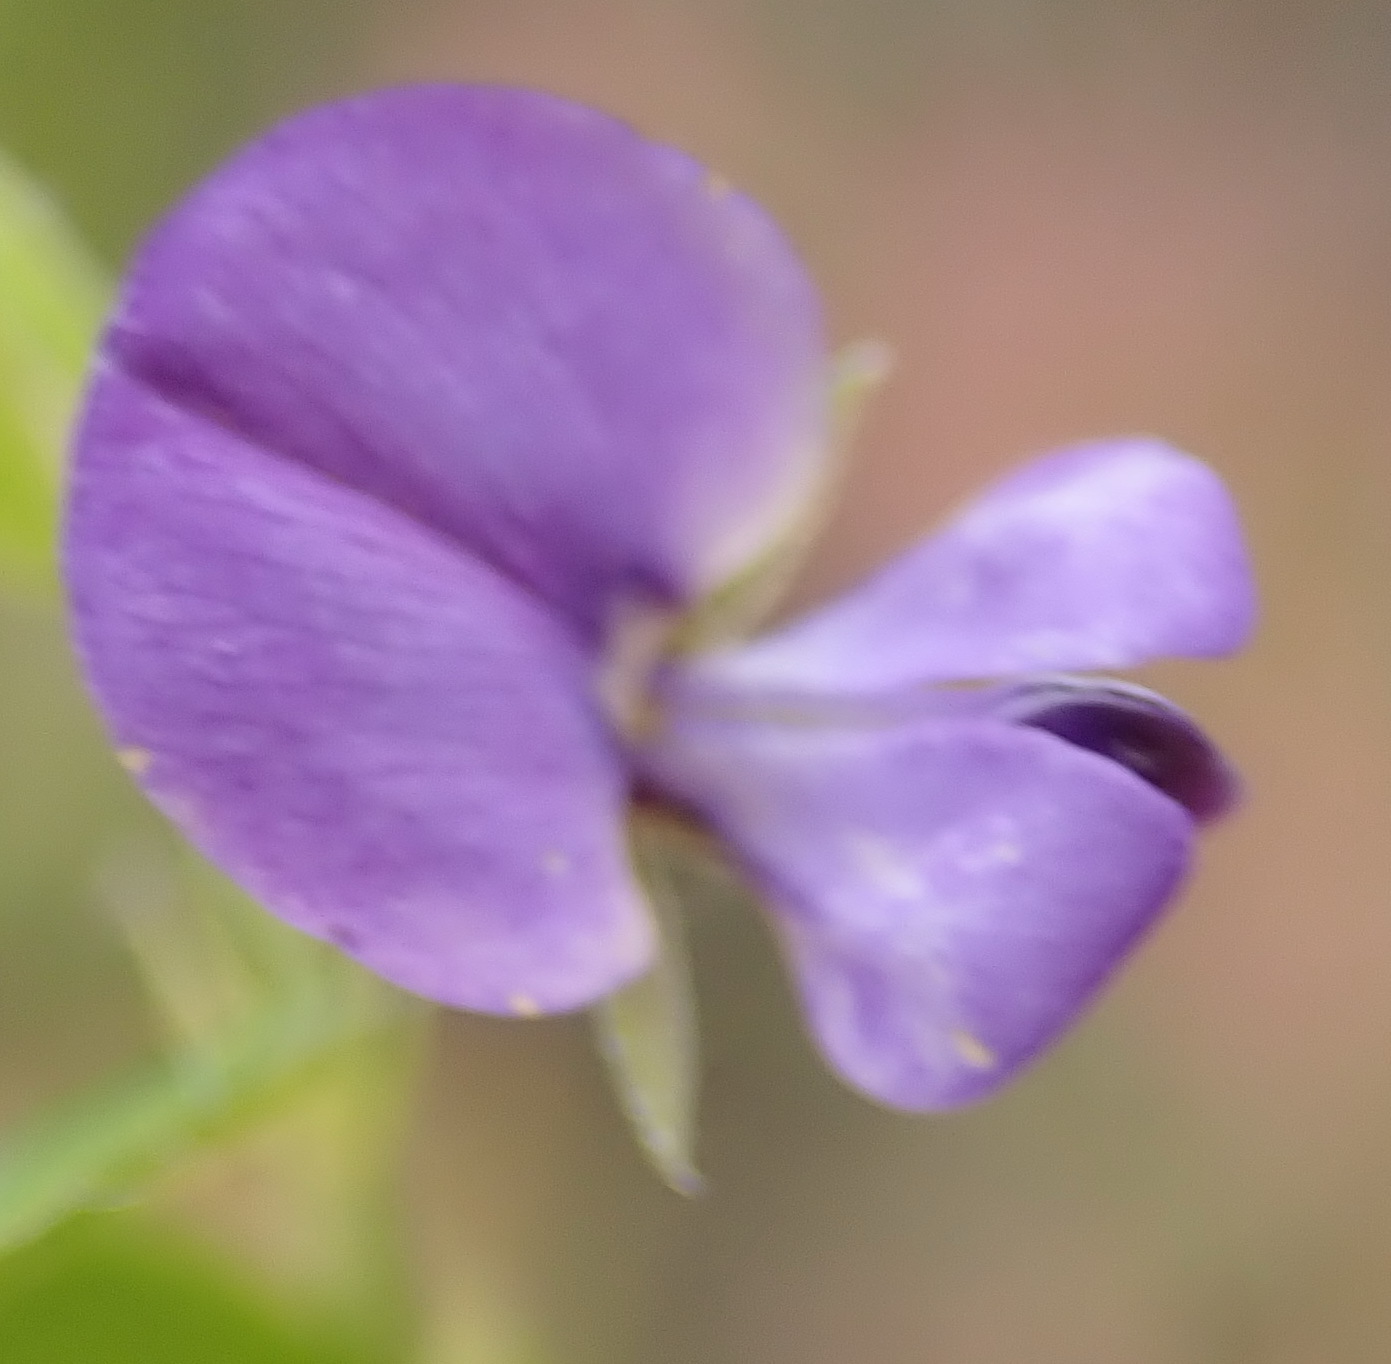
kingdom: Plantae
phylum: Tracheophyta
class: Magnoliopsida
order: Fabales
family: Fabaceae
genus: Psoralea
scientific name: Psoralea plauta
